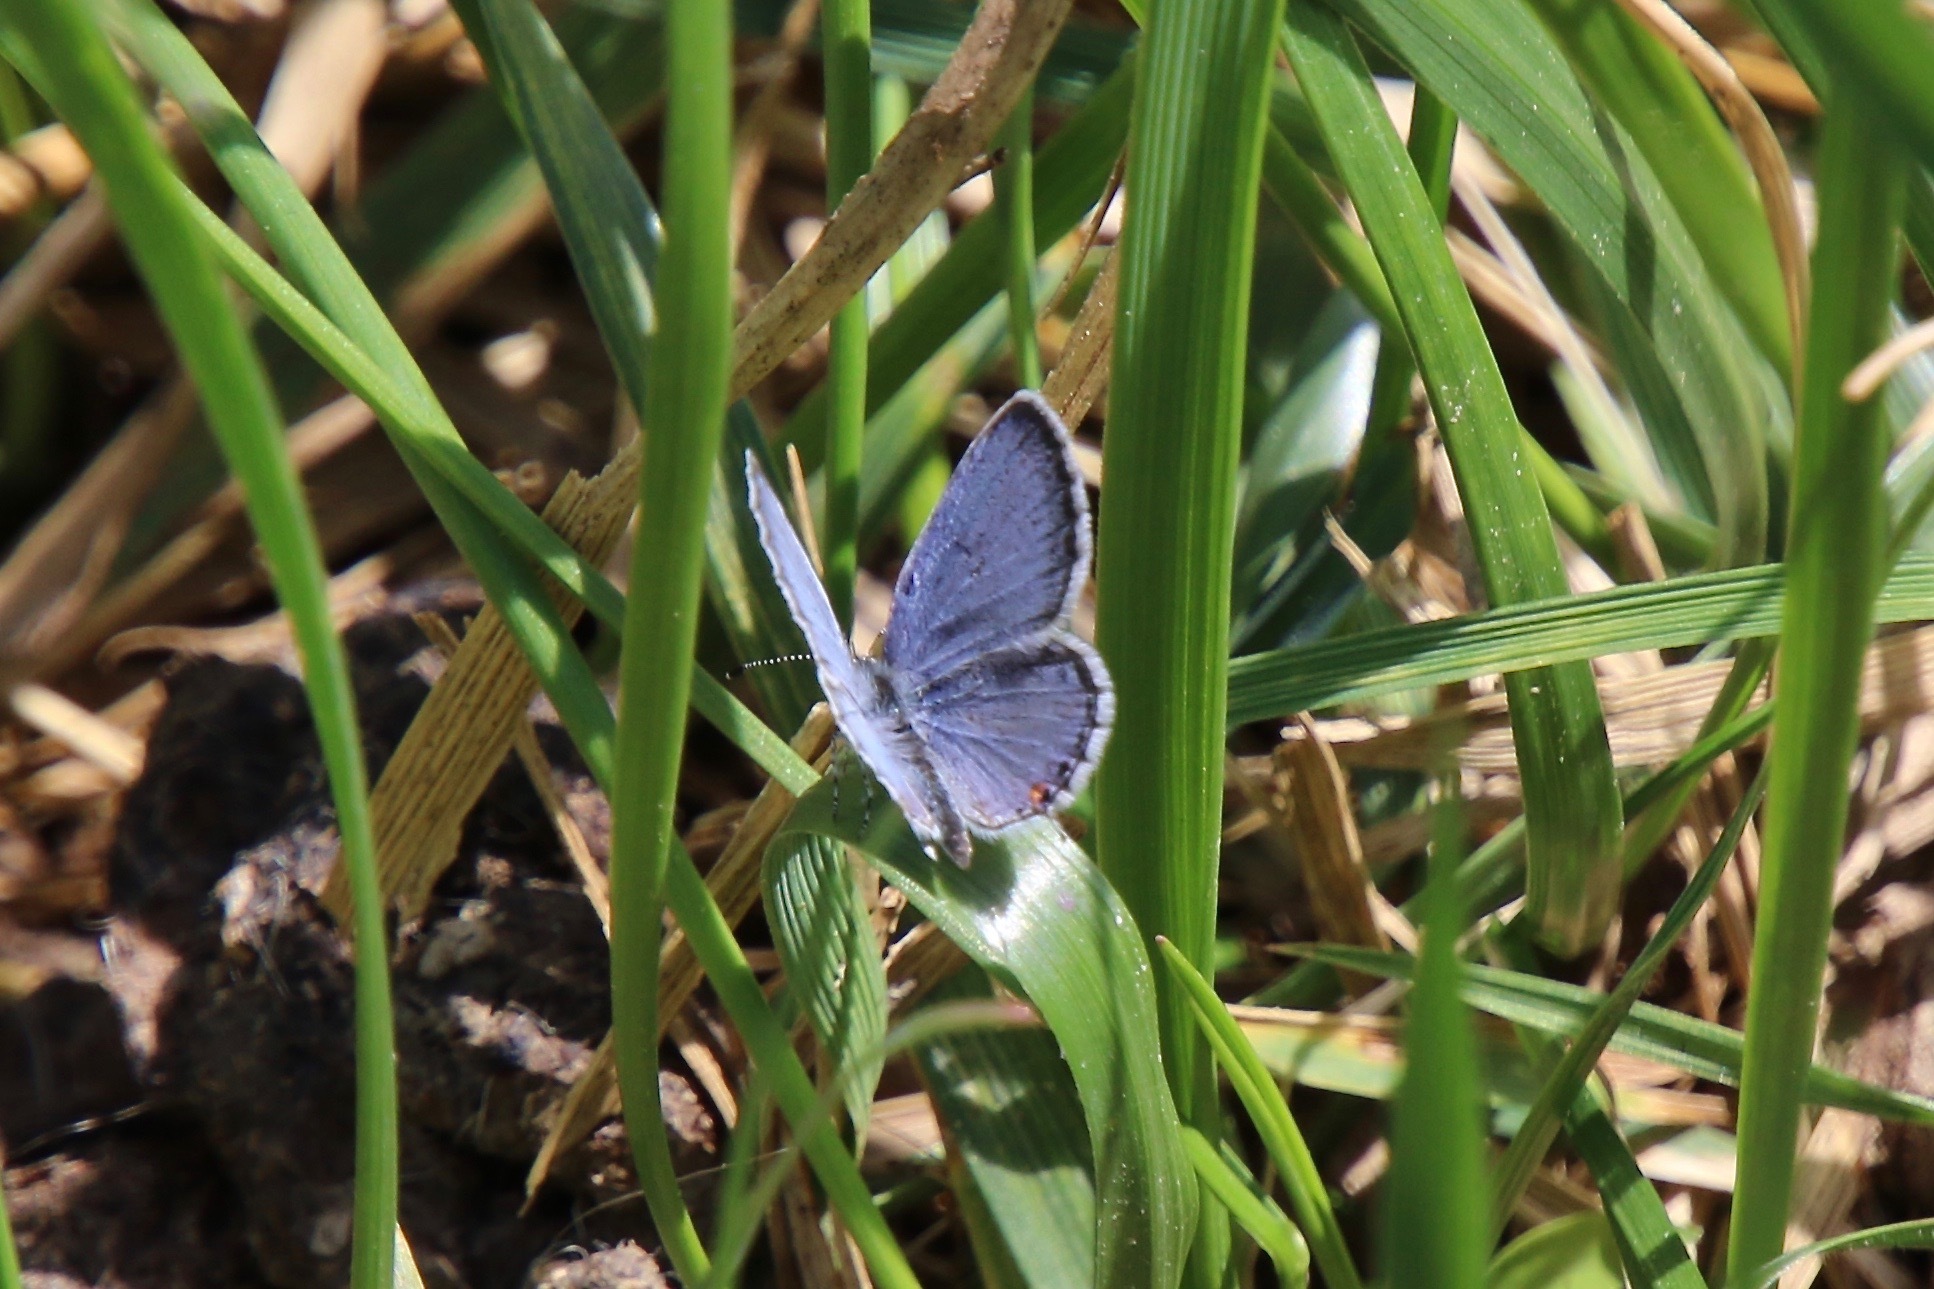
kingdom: Animalia
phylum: Arthropoda
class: Insecta
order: Lepidoptera
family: Lycaenidae
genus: Elkalyce
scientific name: Elkalyce comyntas
